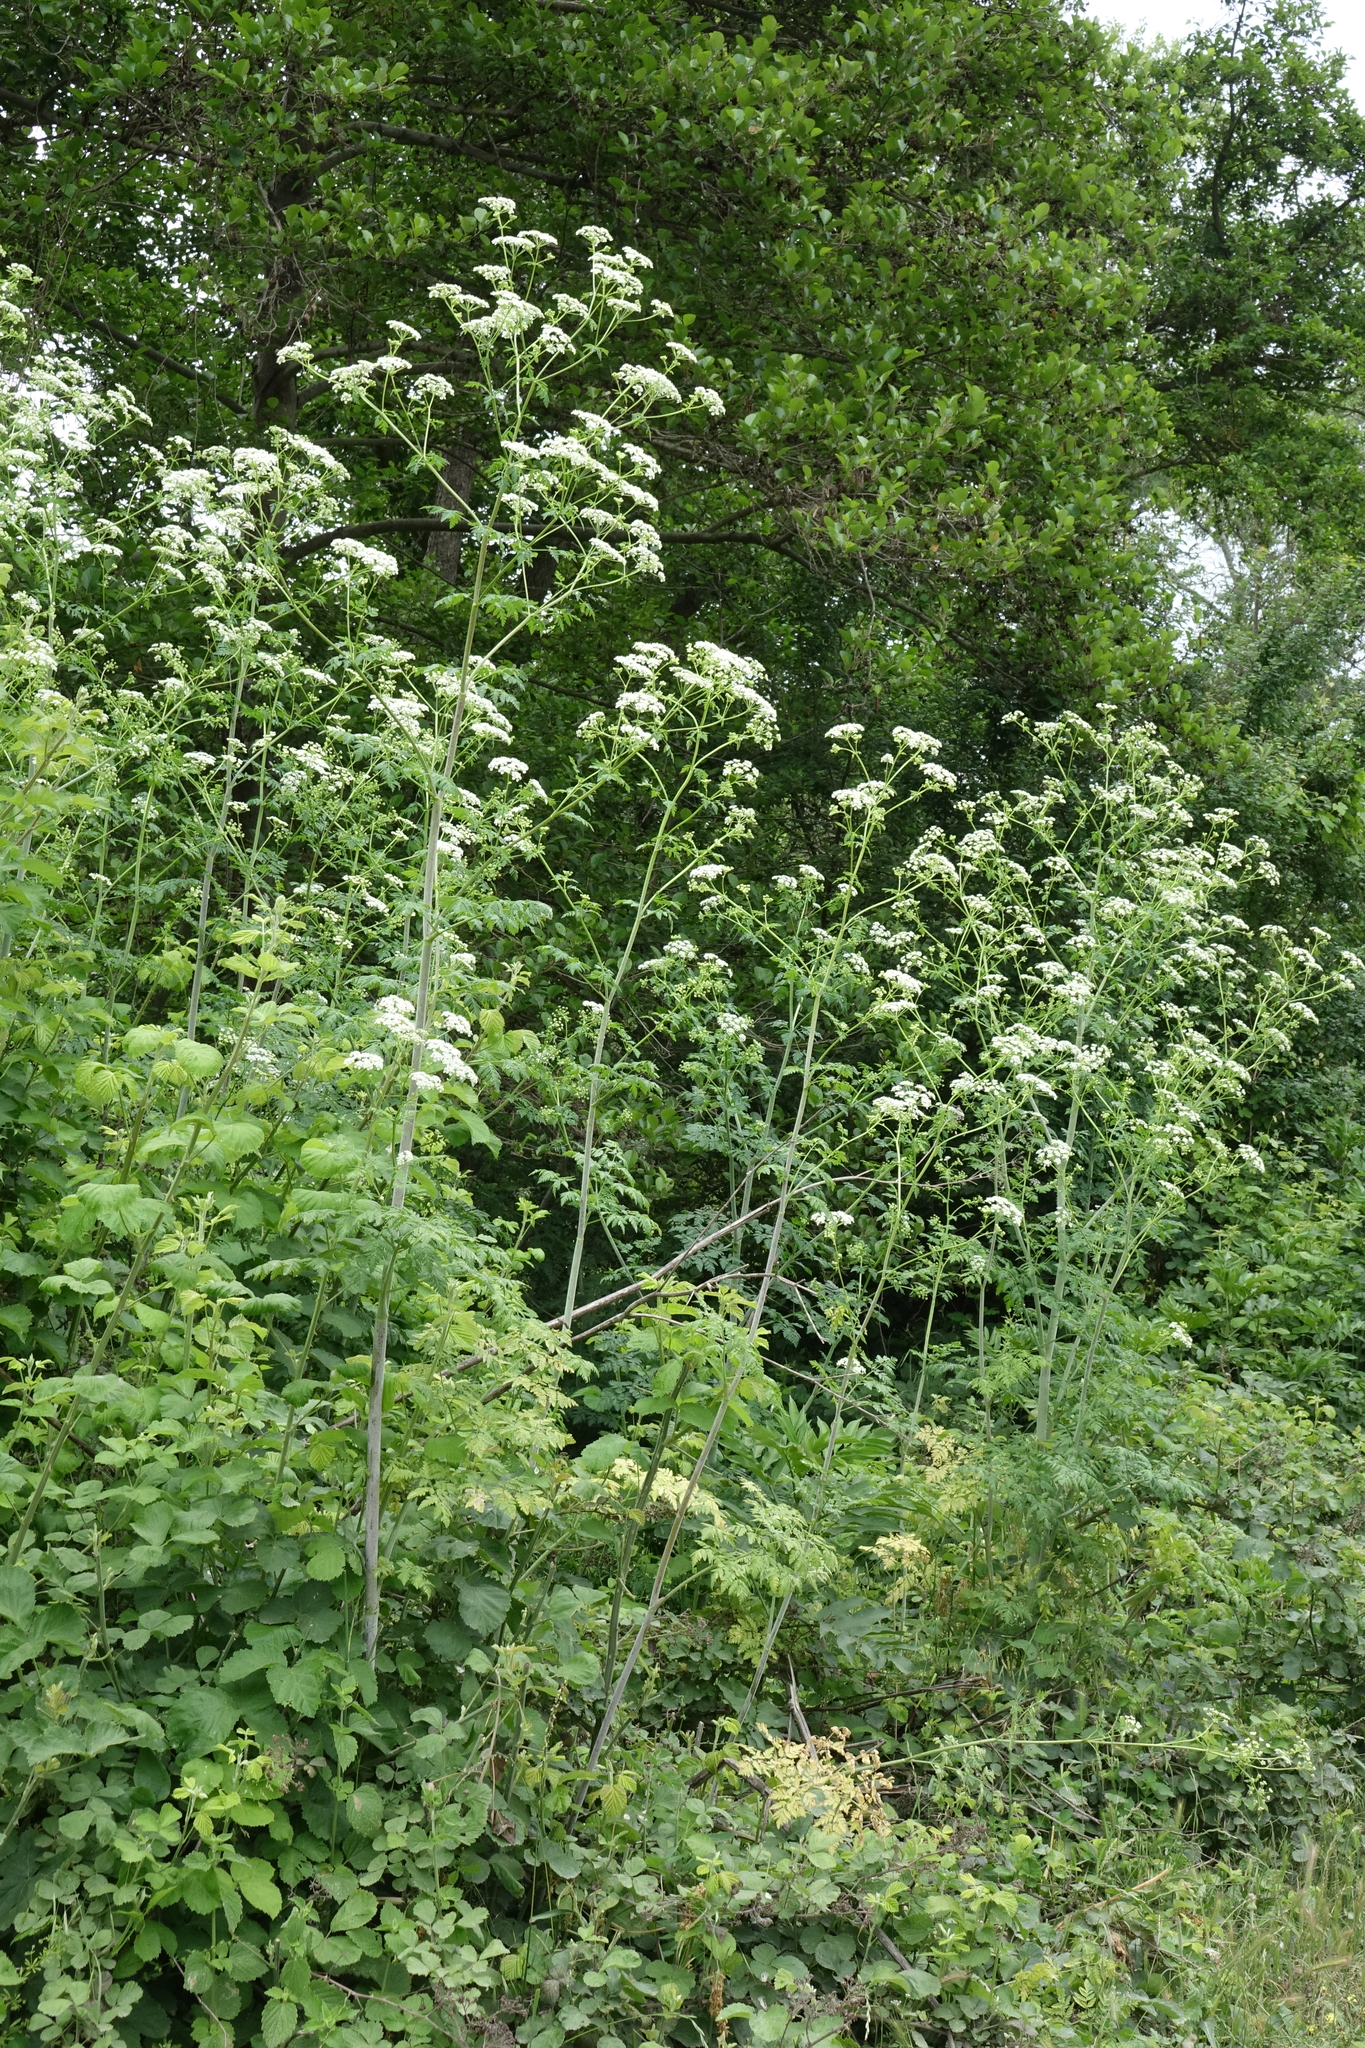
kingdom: Plantae
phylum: Tracheophyta
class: Magnoliopsida
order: Apiales
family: Apiaceae
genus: Conium
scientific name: Conium maculatum
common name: Hemlock
